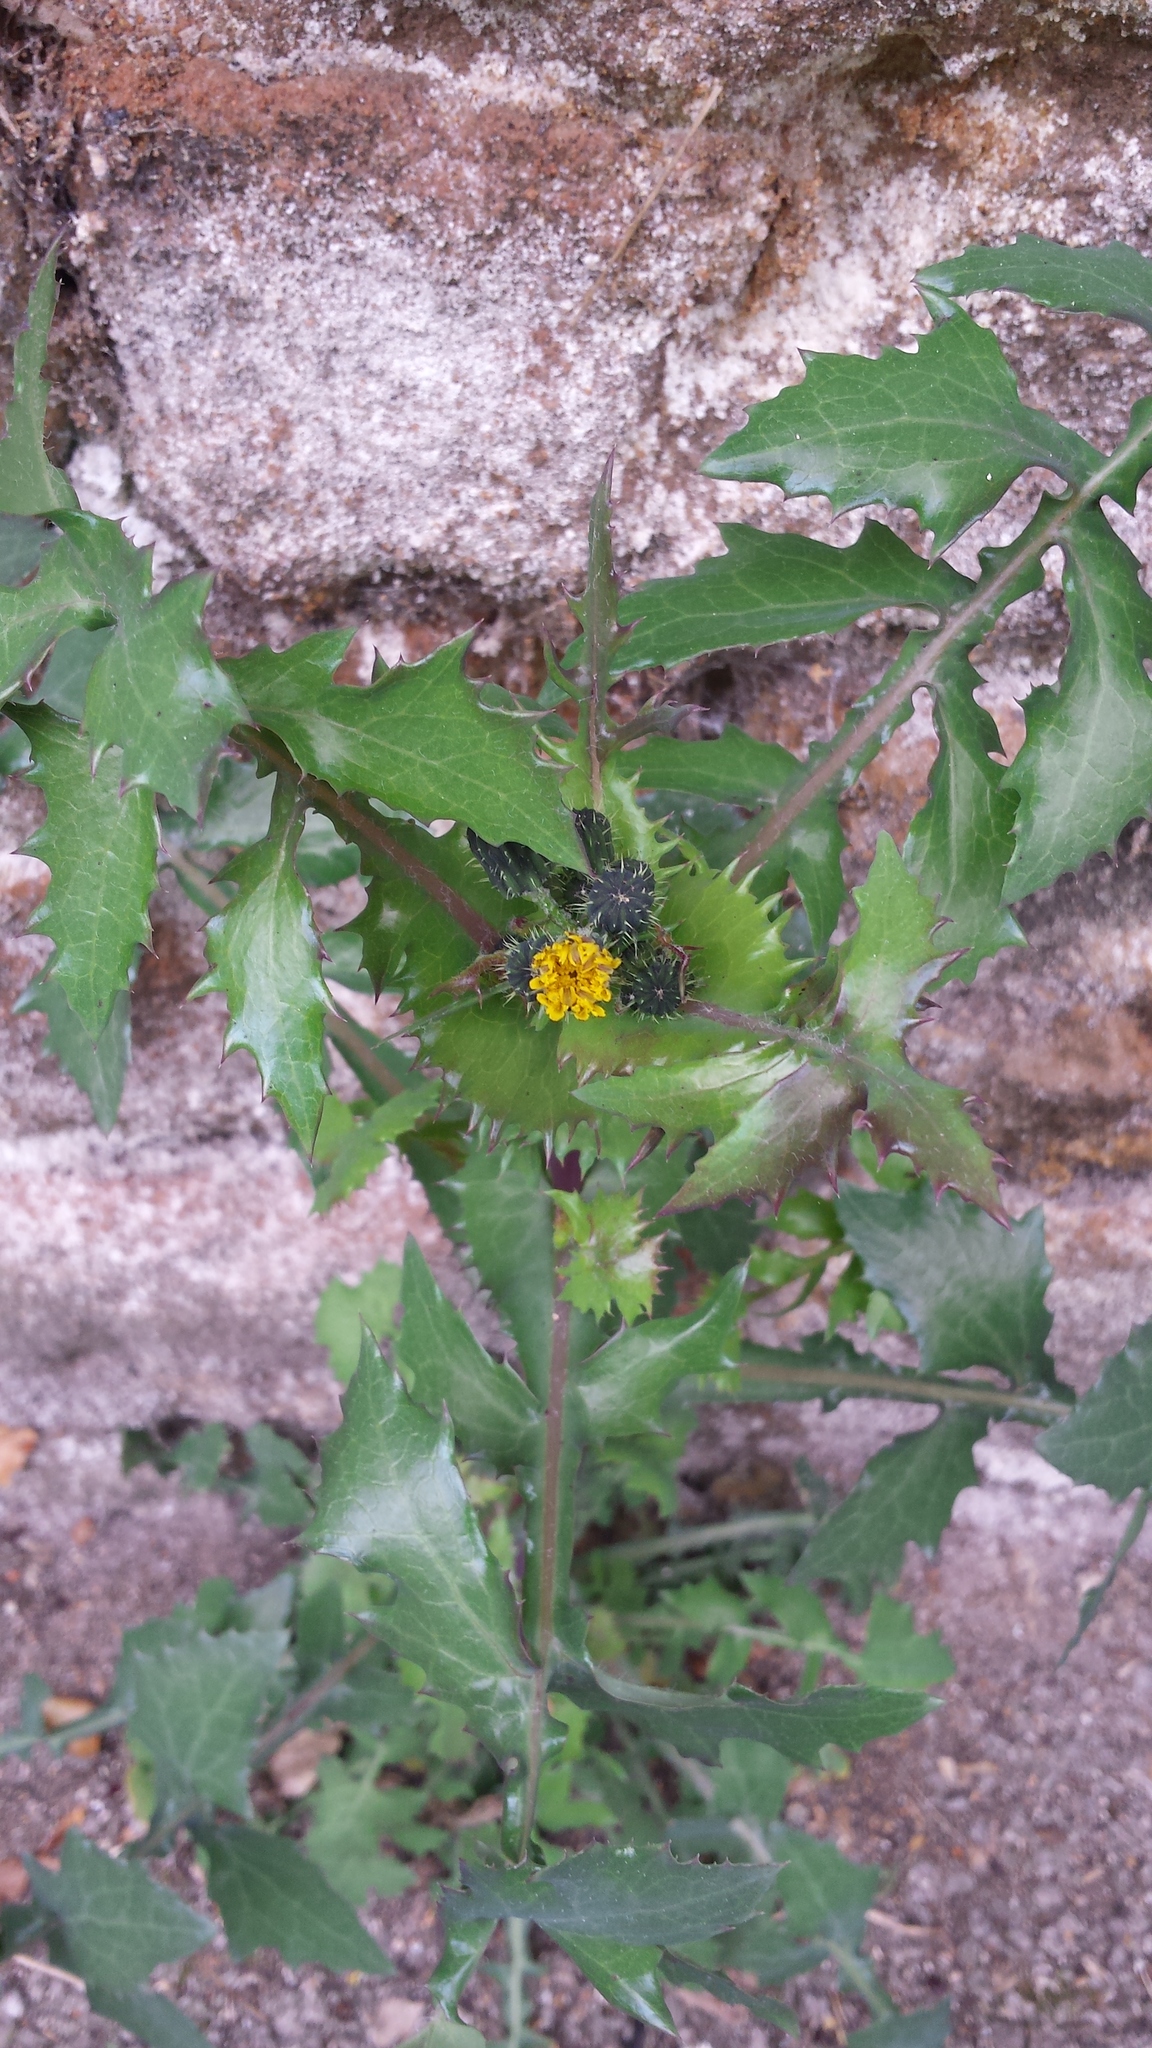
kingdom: Plantae
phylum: Tracheophyta
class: Magnoliopsida
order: Asterales
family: Asteraceae
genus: Sonchus
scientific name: Sonchus asper
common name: Prickly sow-thistle
